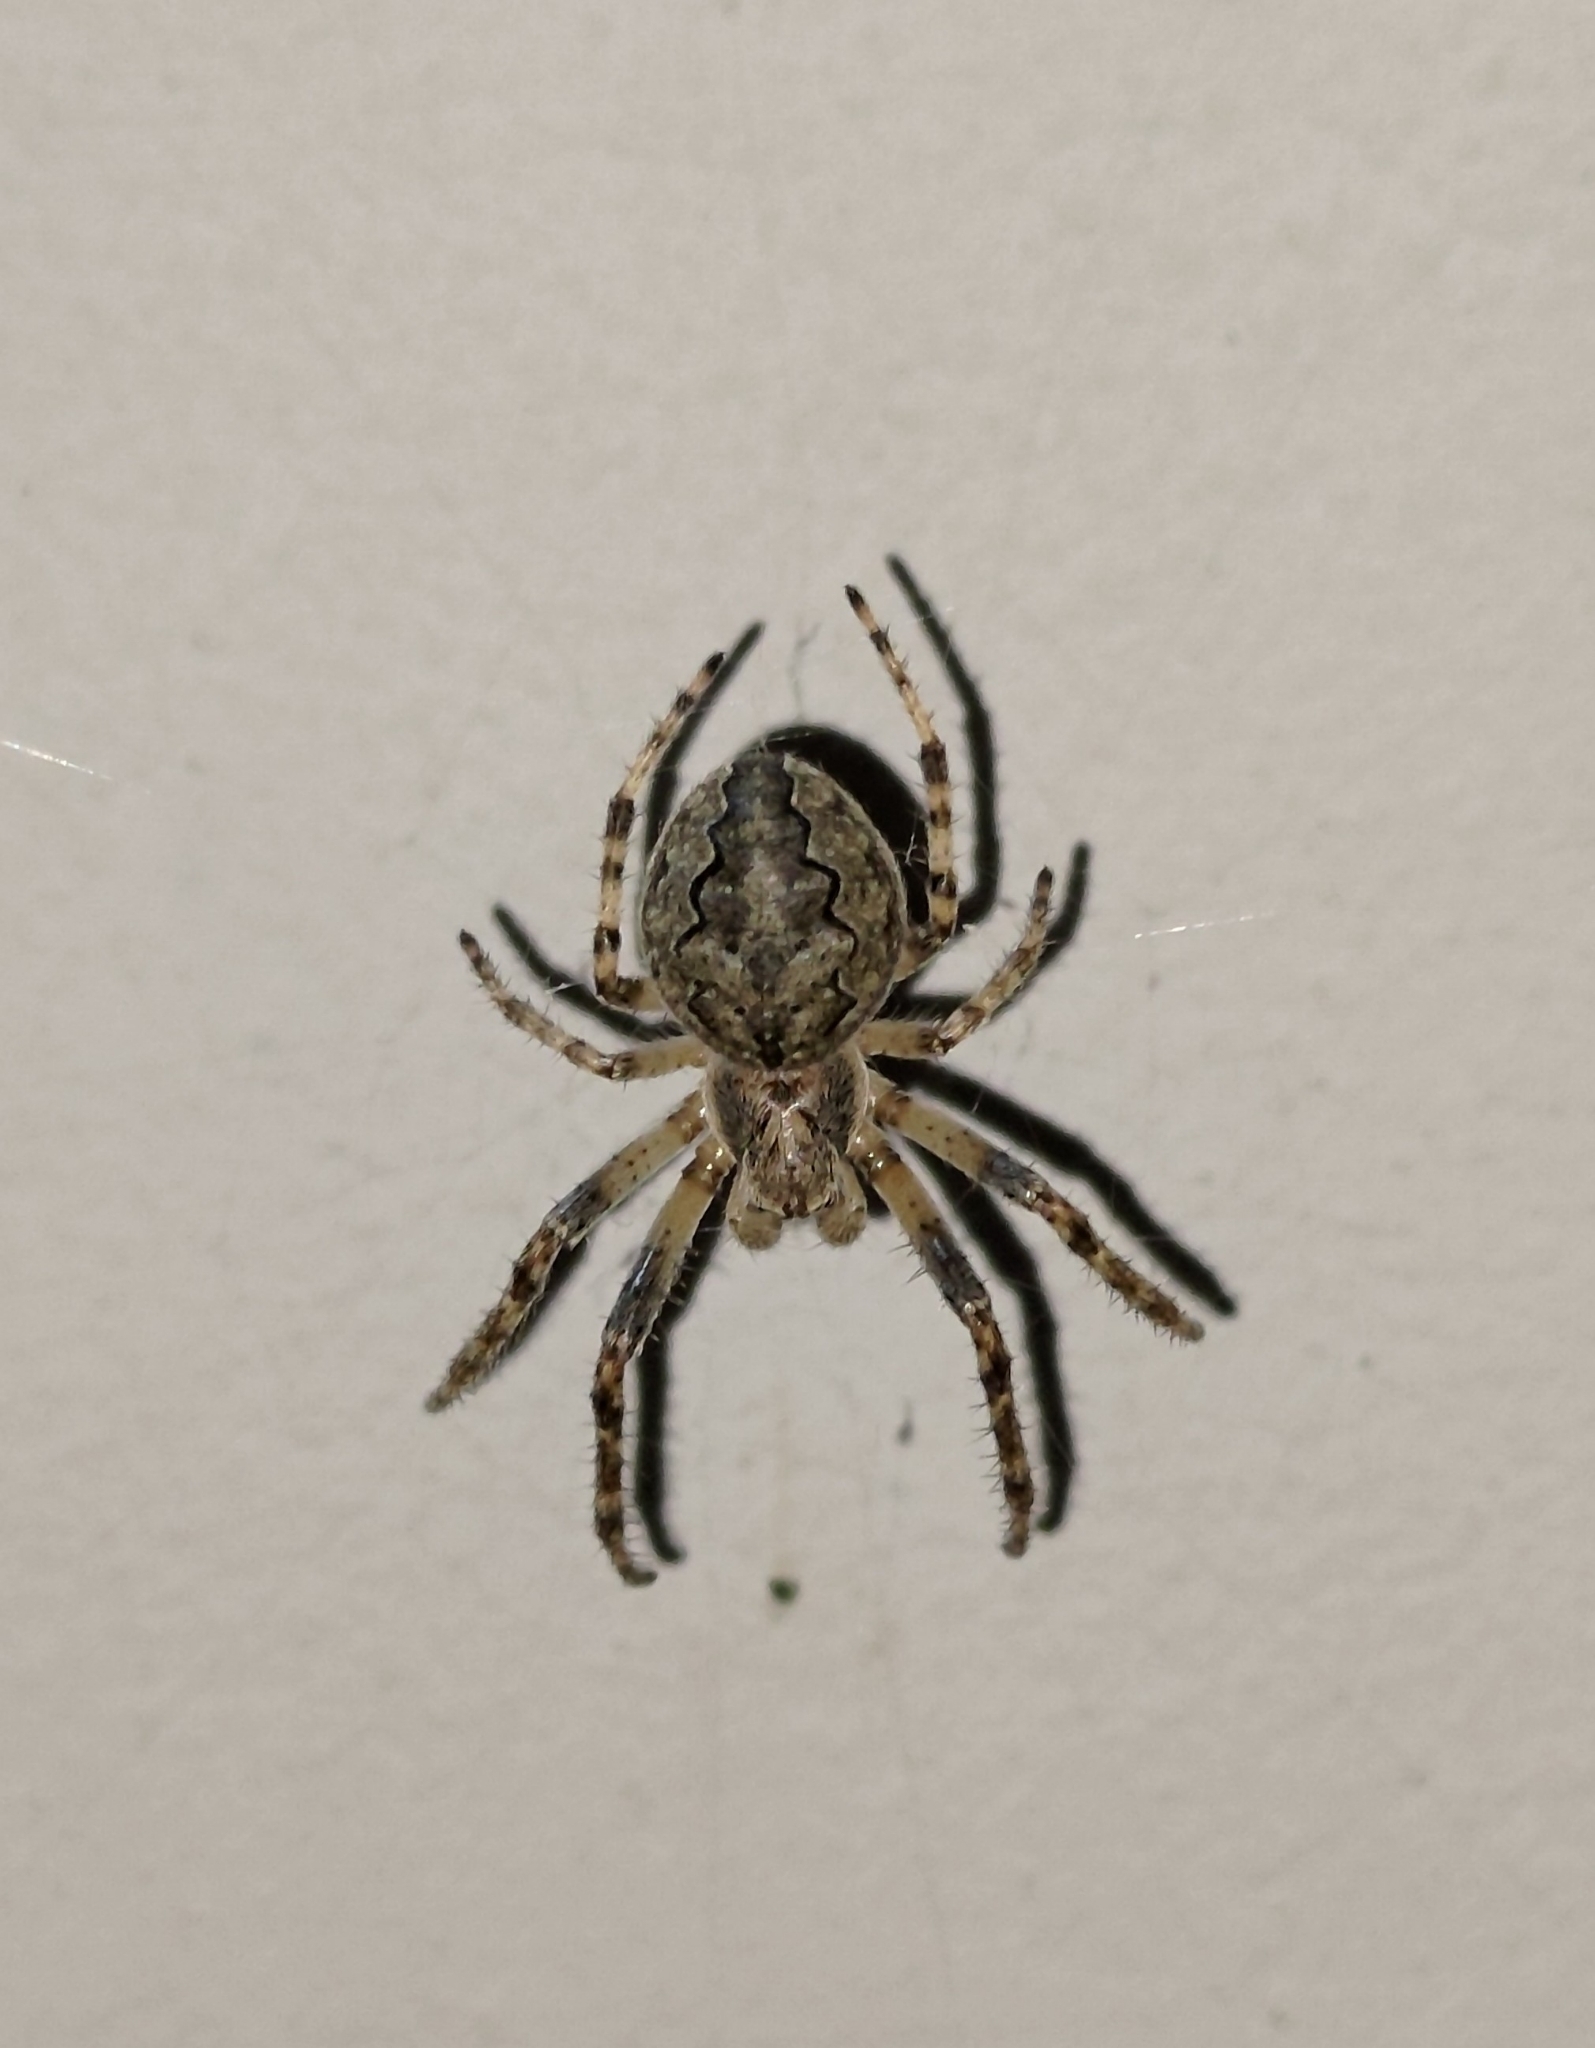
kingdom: Animalia
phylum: Arthropoda
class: Arachnida
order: Araneae
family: Araneidae
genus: Larinioides
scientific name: Larinioides ixobolus
